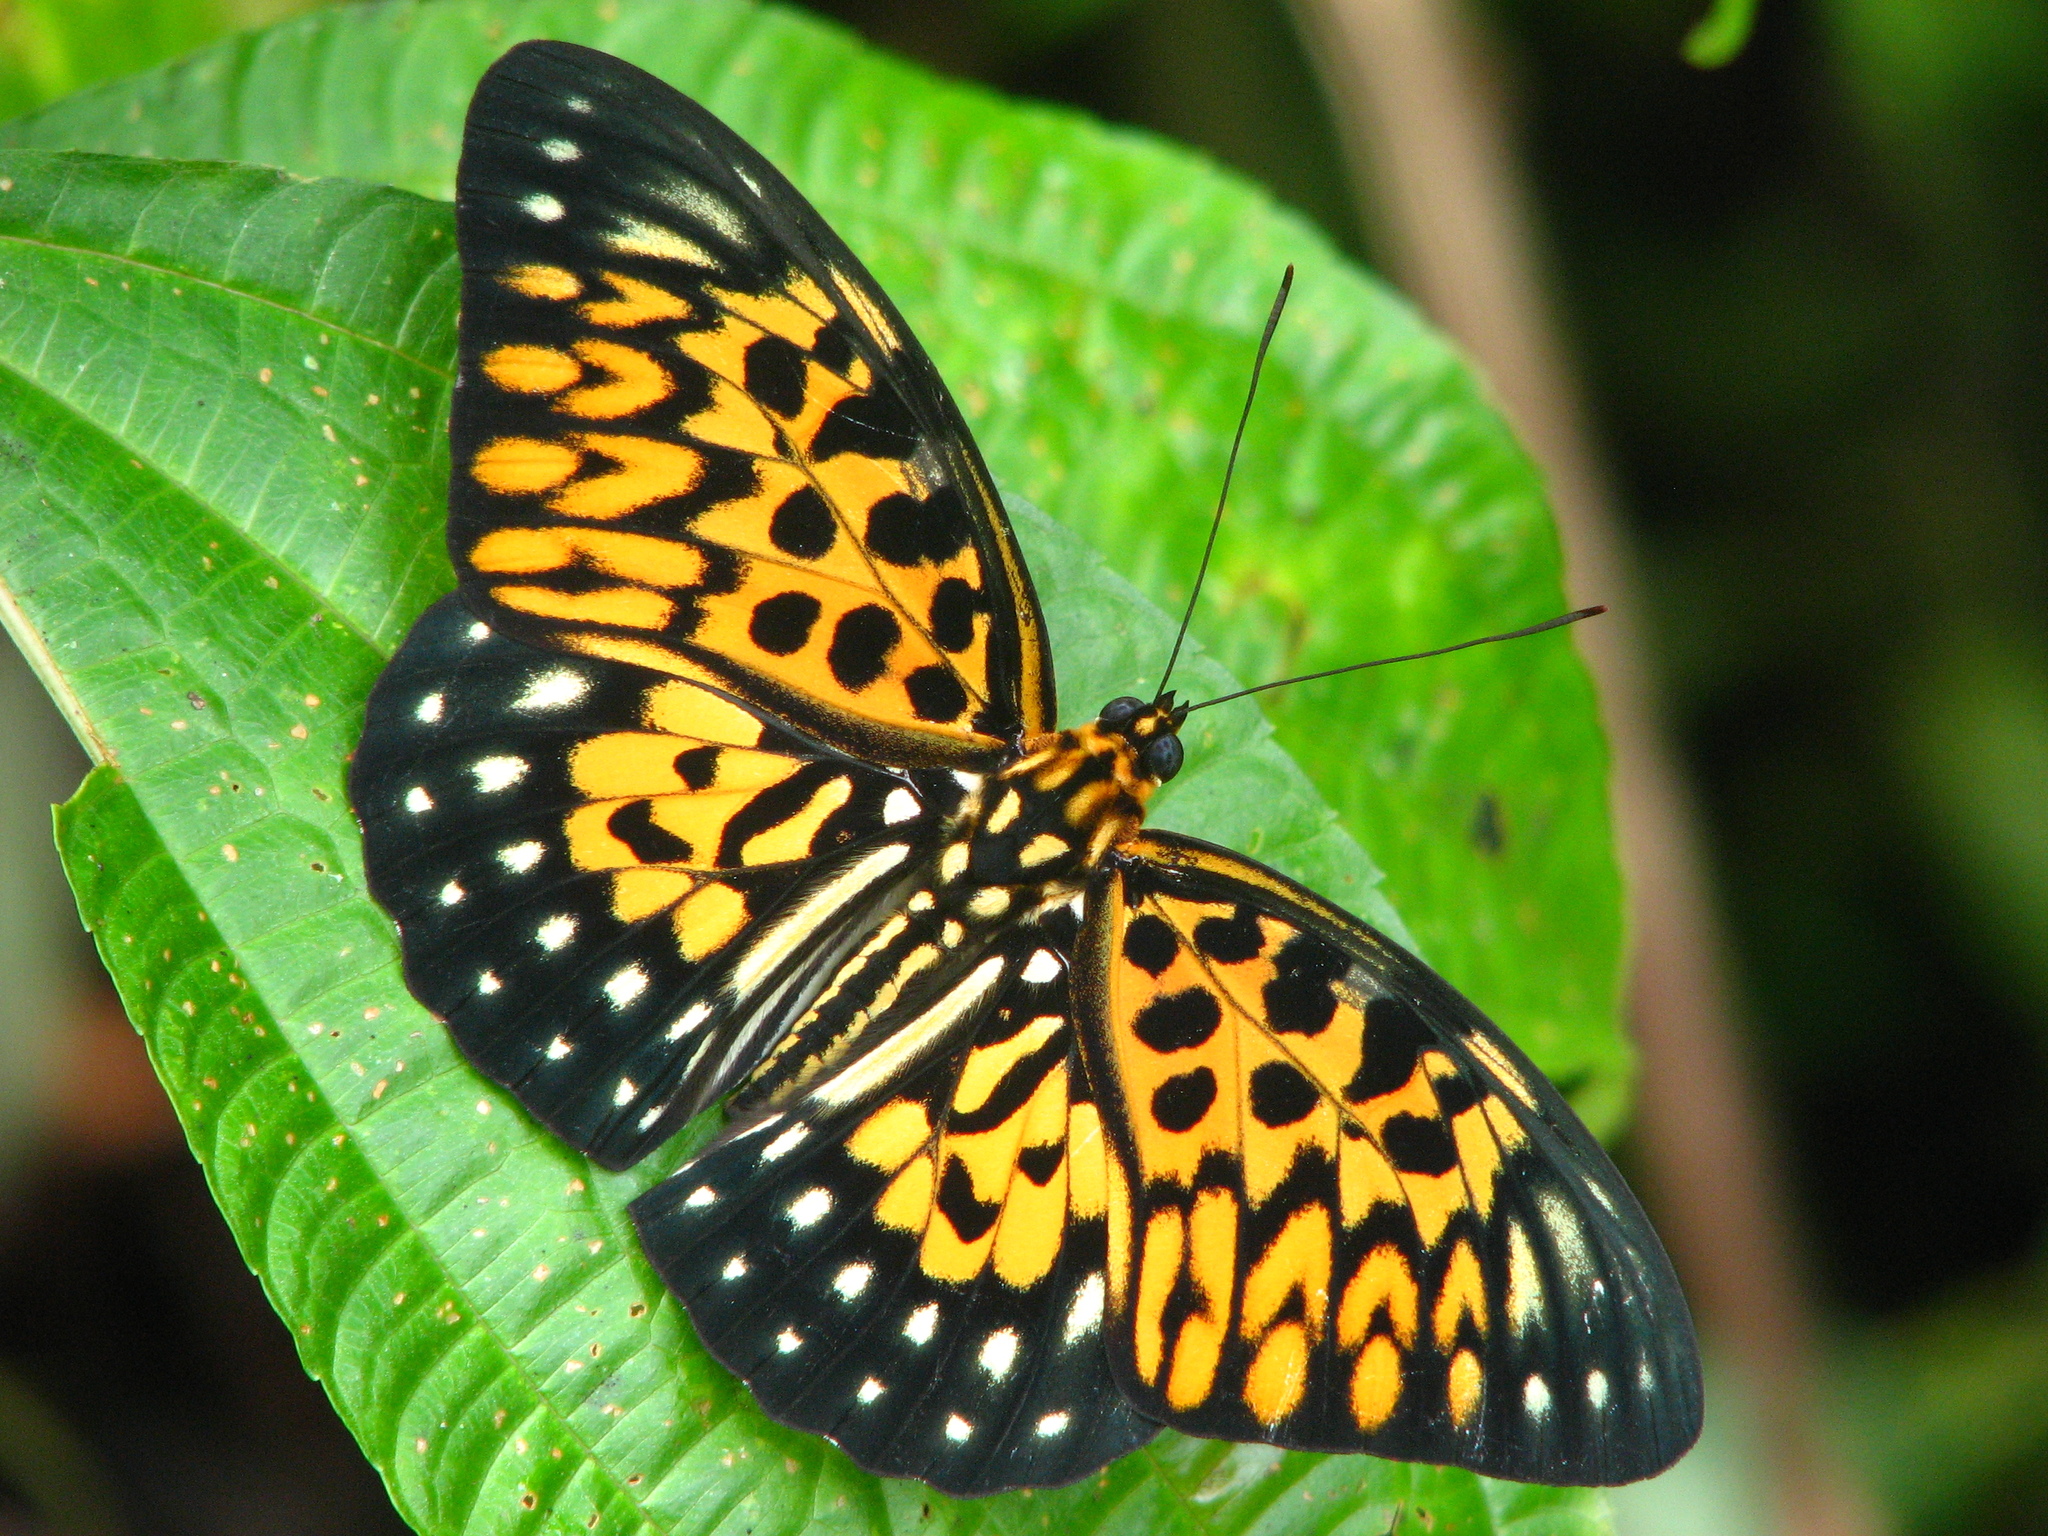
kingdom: Animalia
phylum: Arthropoda
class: Insecta
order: Lepidoptera
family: Nymphalidae
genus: Neurosigma
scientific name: Neurosigma doubledayi
